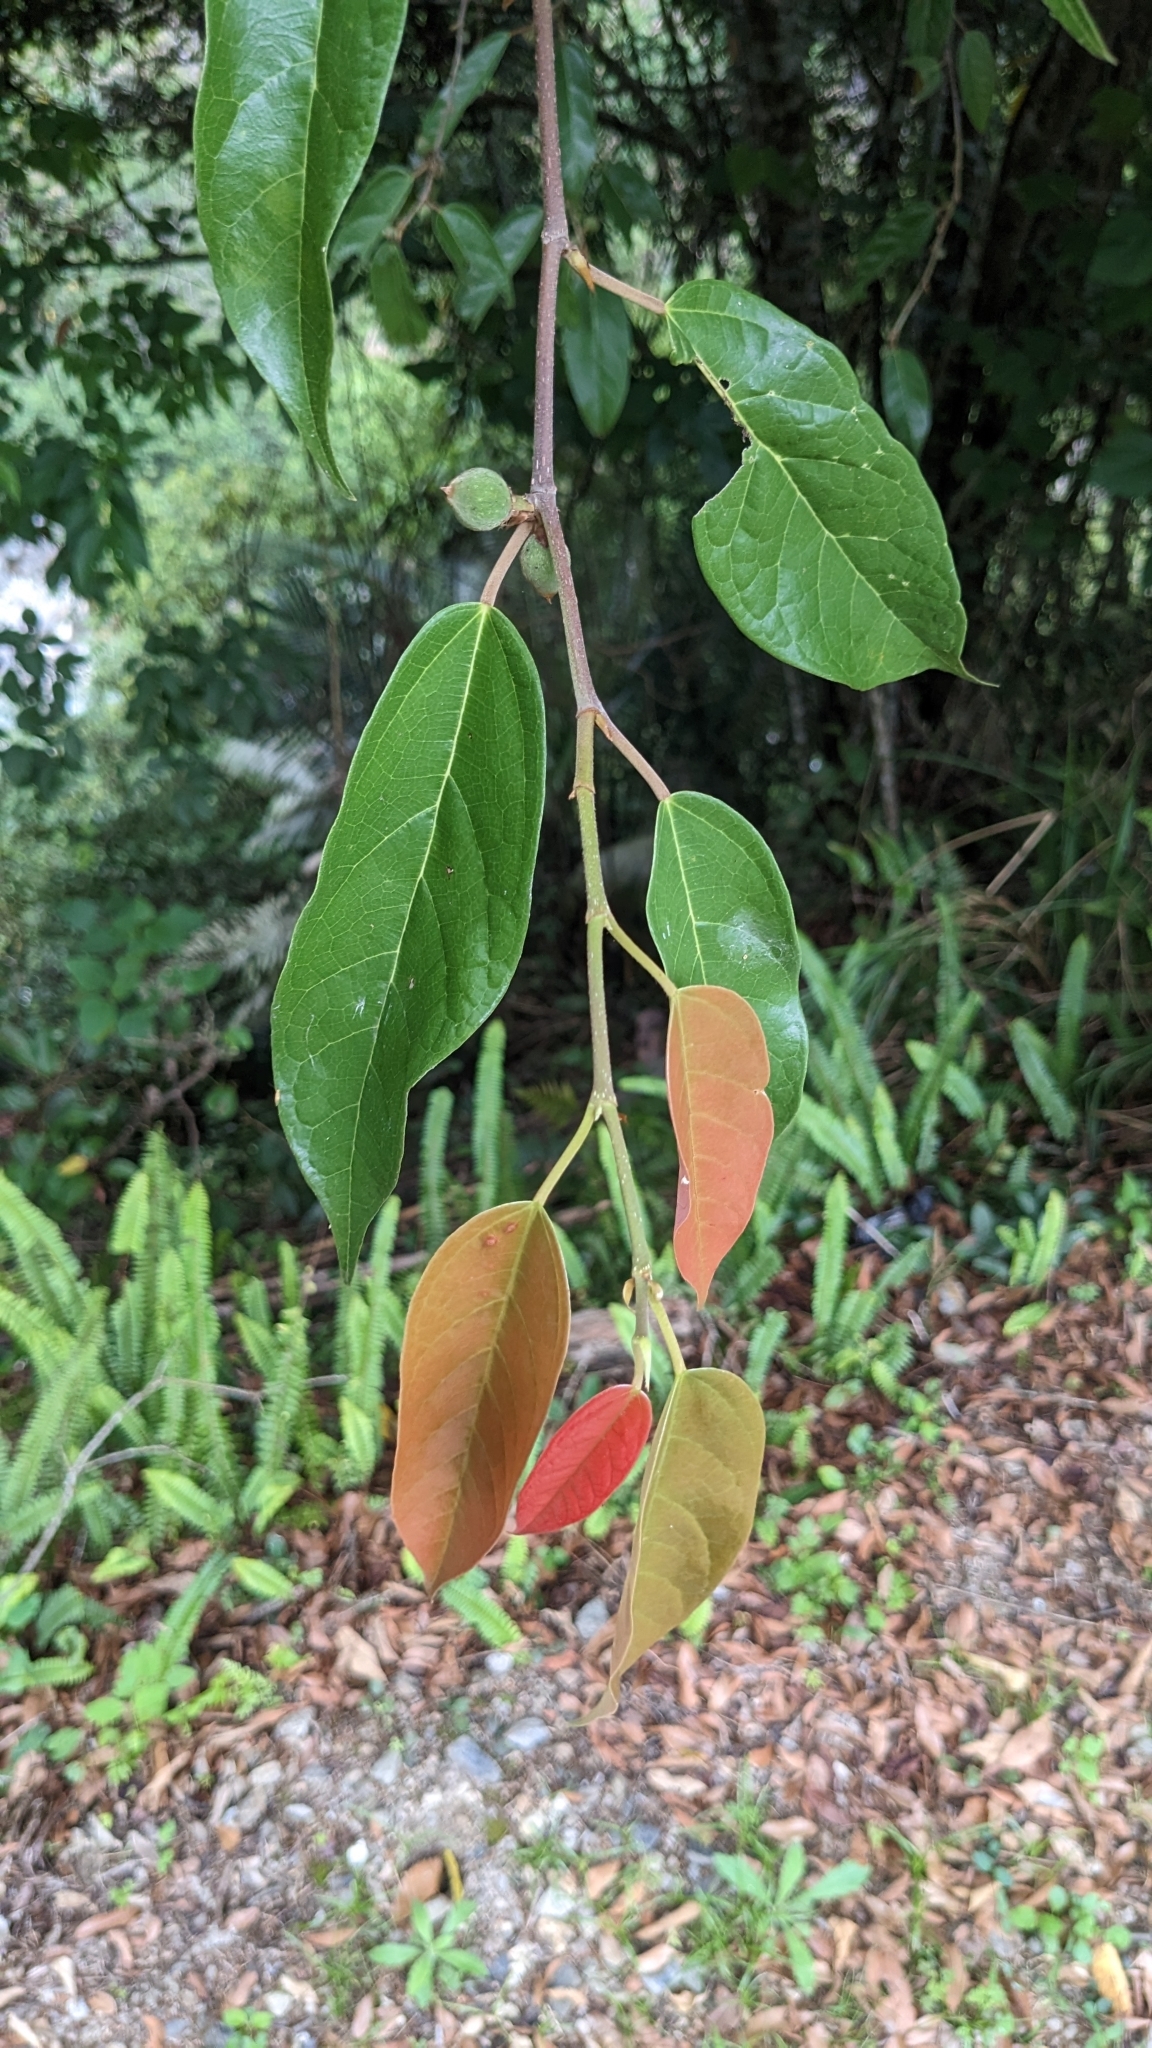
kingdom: Plantae
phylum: Tracheophyta
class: Magnoliopsida
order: Rosales
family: Moraceae
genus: Ficus
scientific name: Ficus sarmentosa
